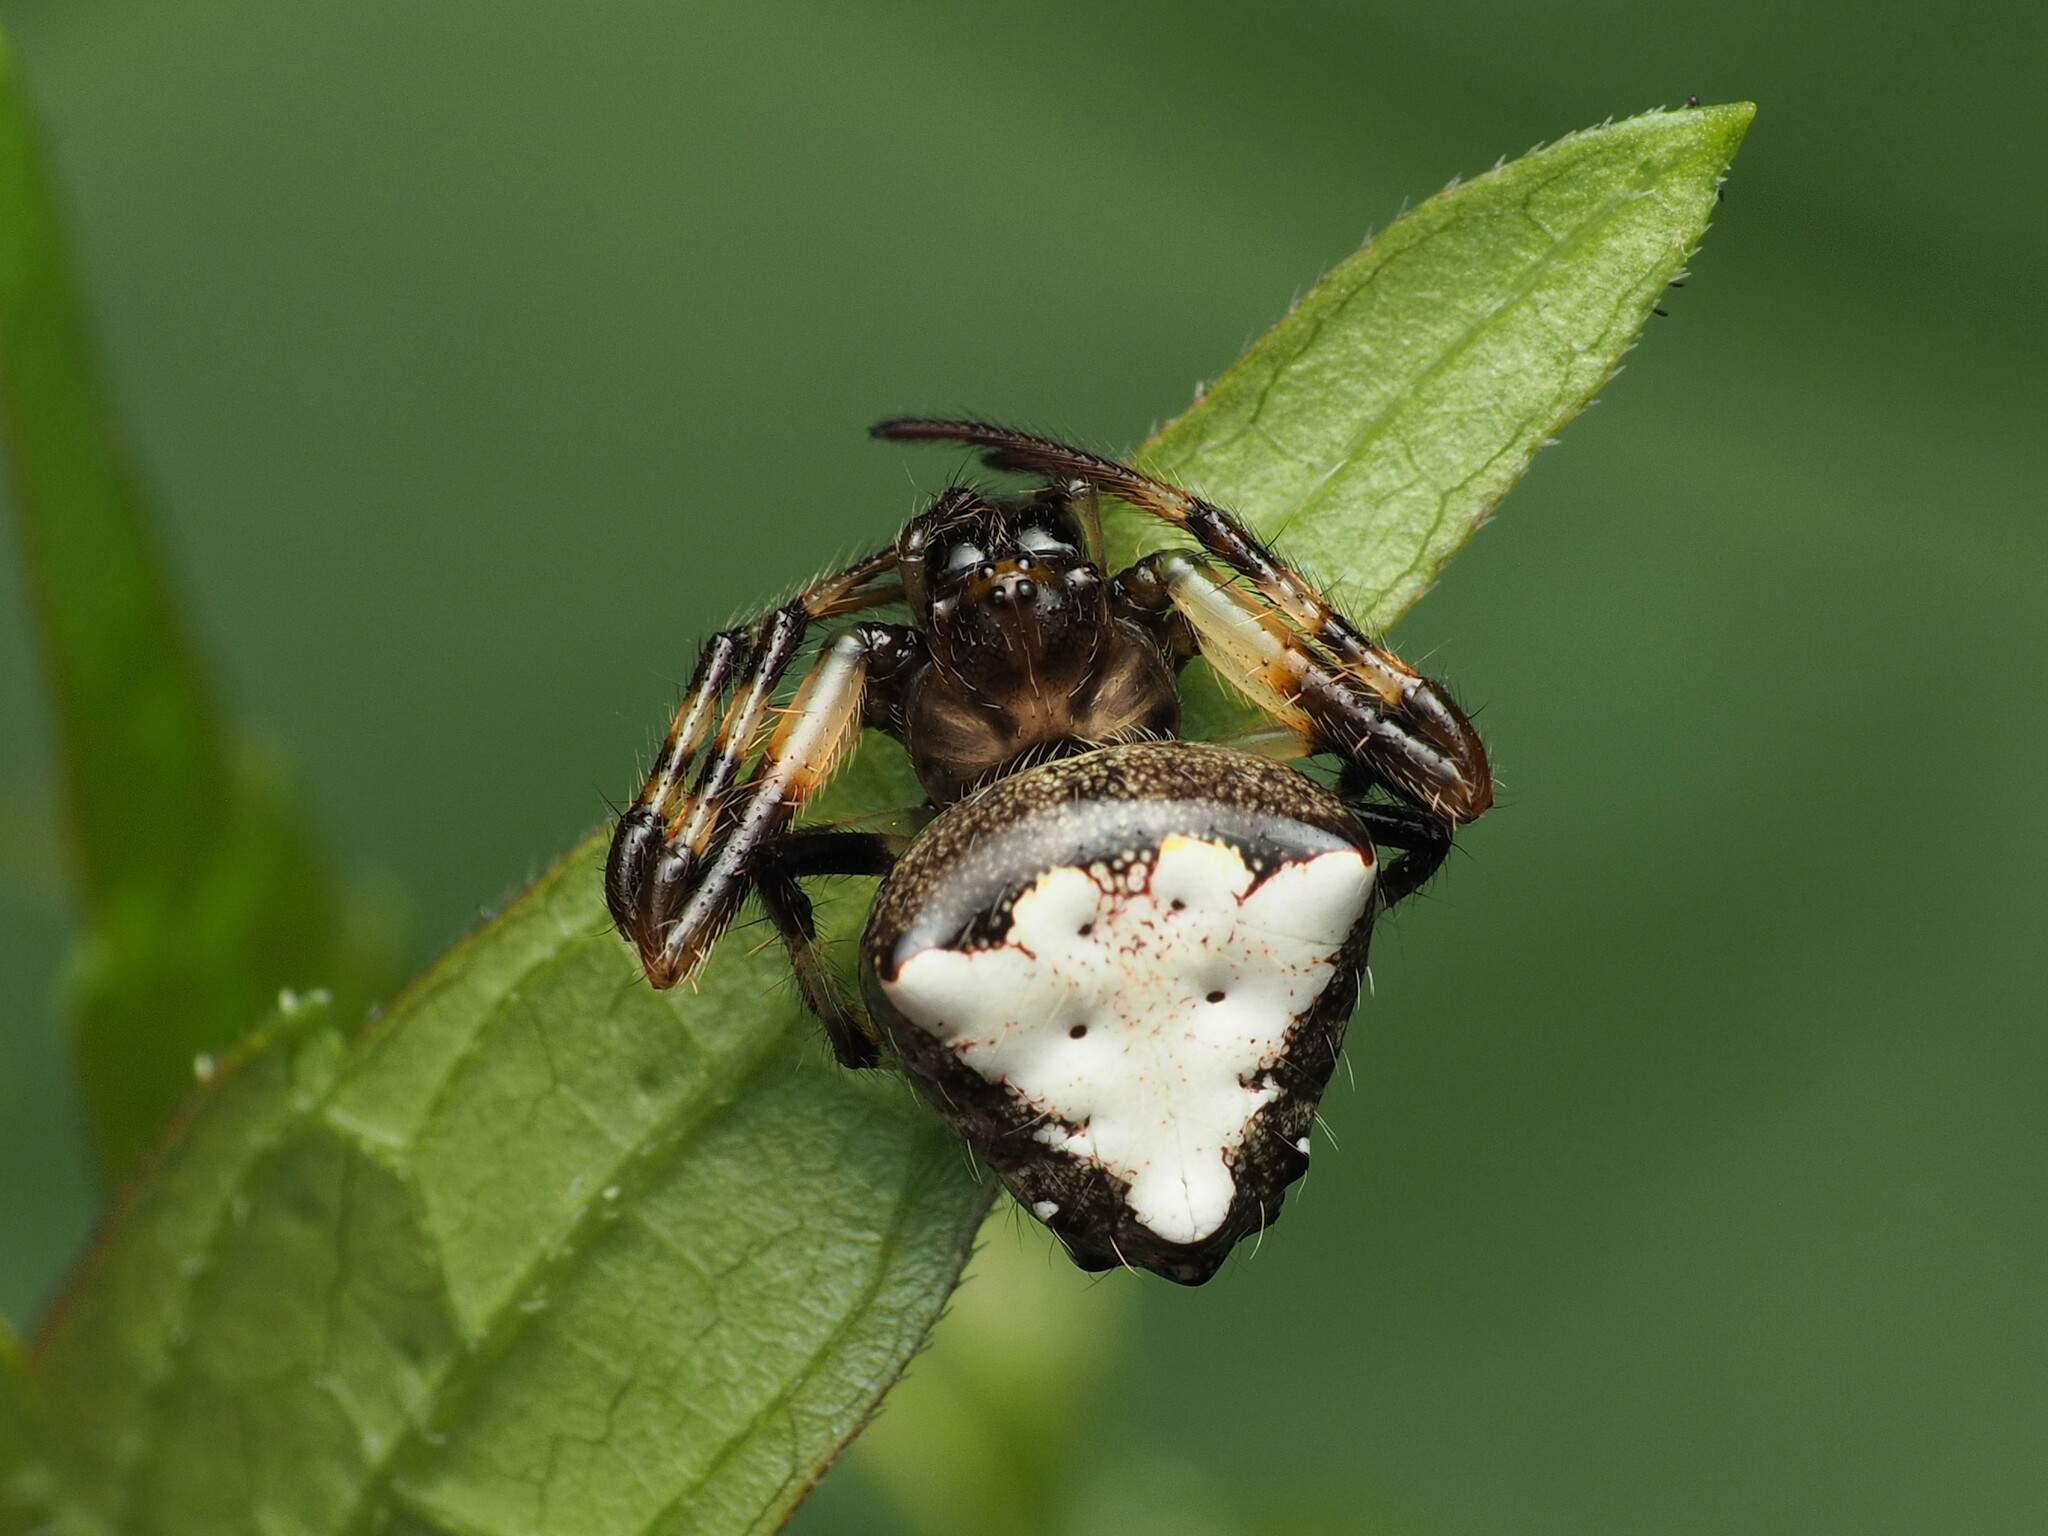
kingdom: Animalia
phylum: Arthropoda
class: Arachnida
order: Araneae
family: Araneidae
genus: Verrucosa
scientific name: Verrucosa arenata
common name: Orb weavers
